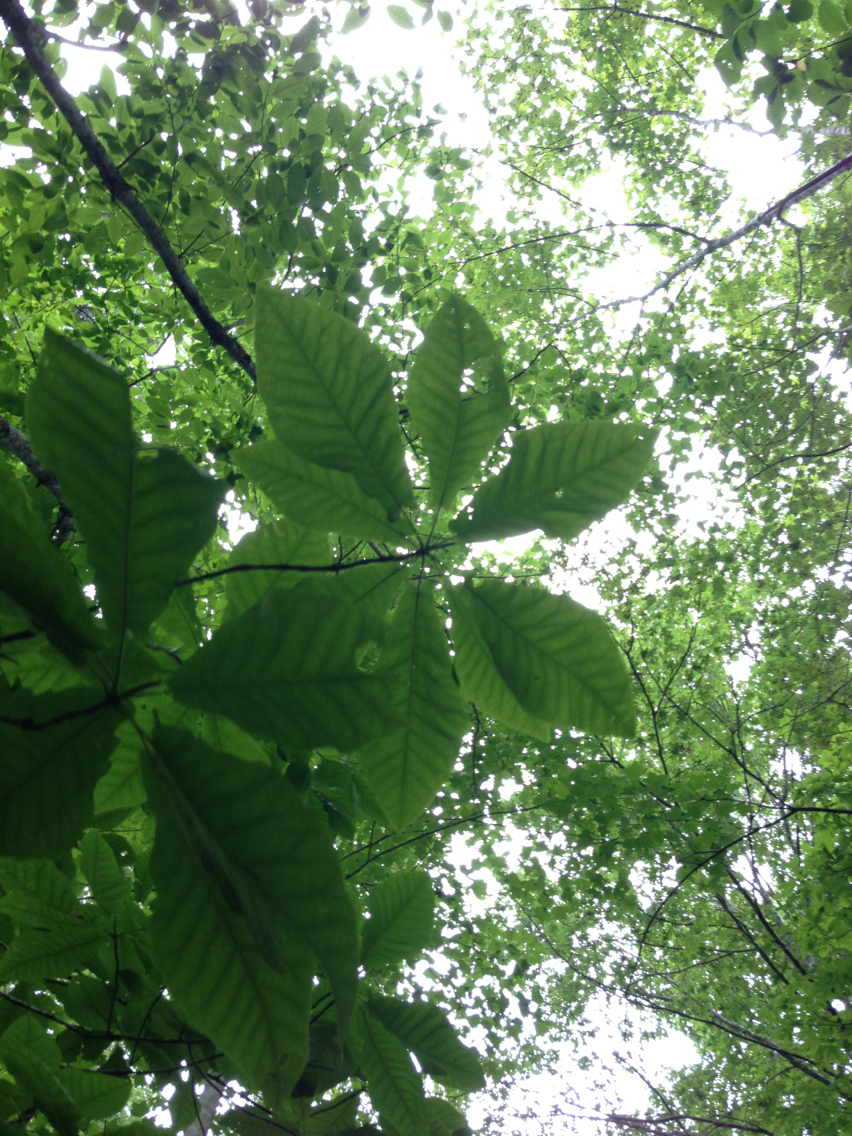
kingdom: Plantae
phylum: Tracheophyta
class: Magnoliopsida
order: Magnoliales
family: Magnoliaceae
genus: Magnolia
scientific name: Magnolia tripetala
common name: Umbrella magnolia
